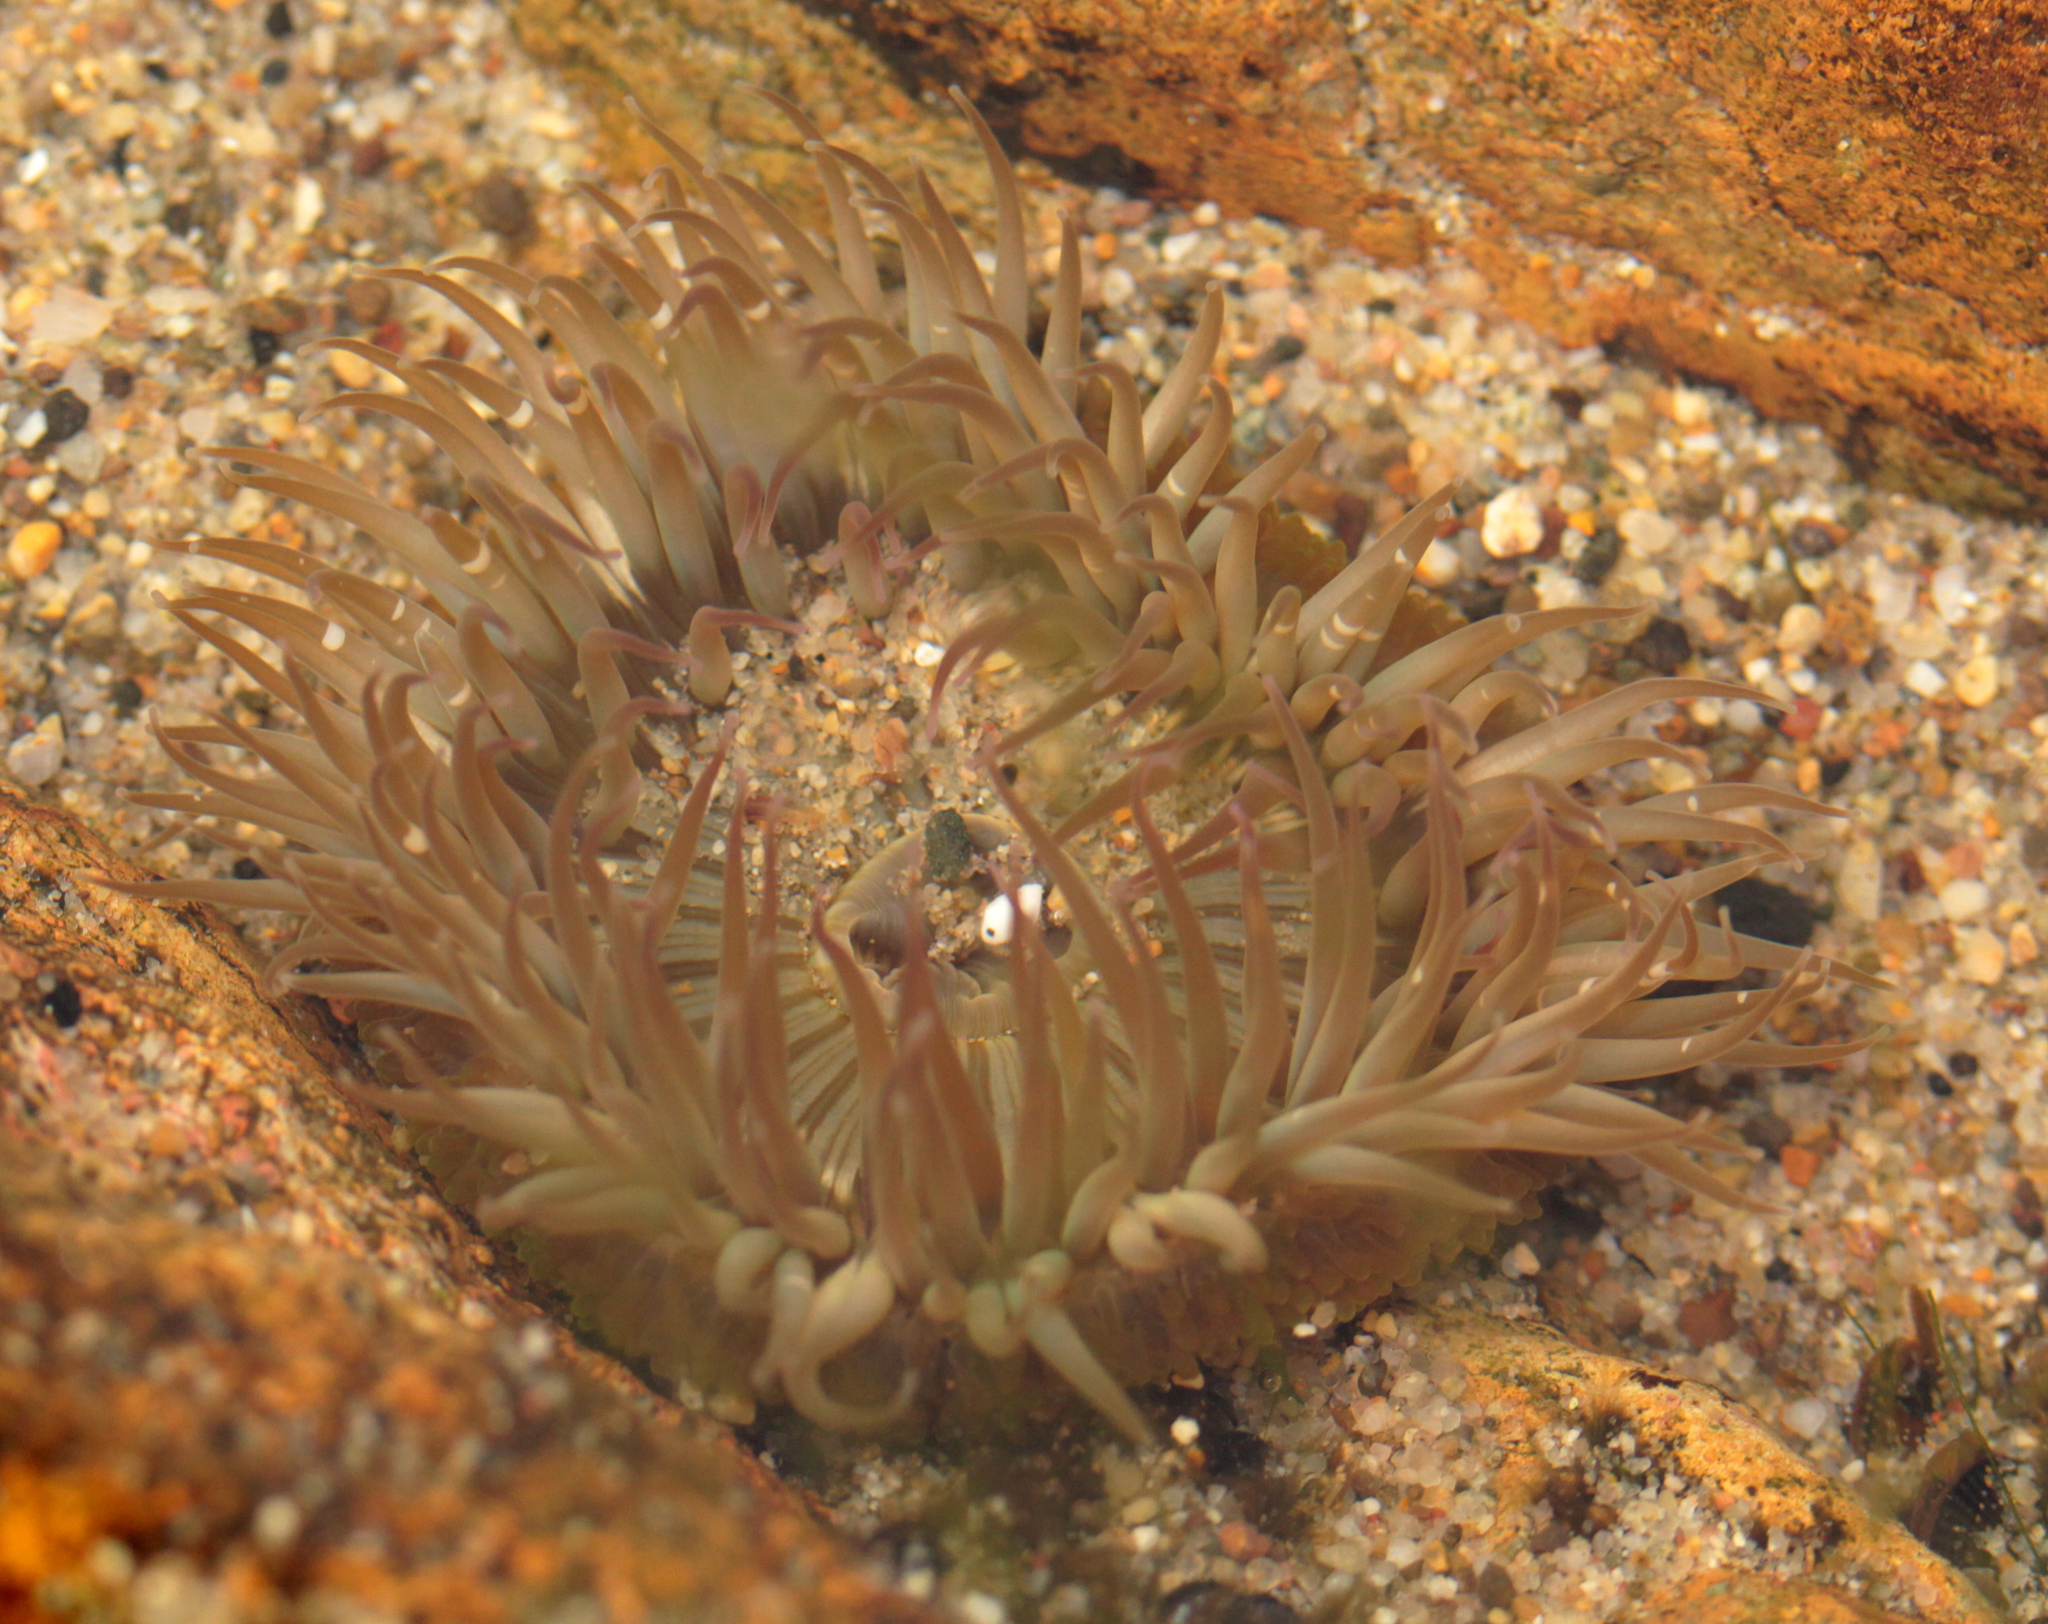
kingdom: Animalia
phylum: Cnidaria
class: Anthozoa
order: Actiniaria
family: Actiniidae
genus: Anthopleura
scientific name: Anthopleura sola
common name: Sun anemone
